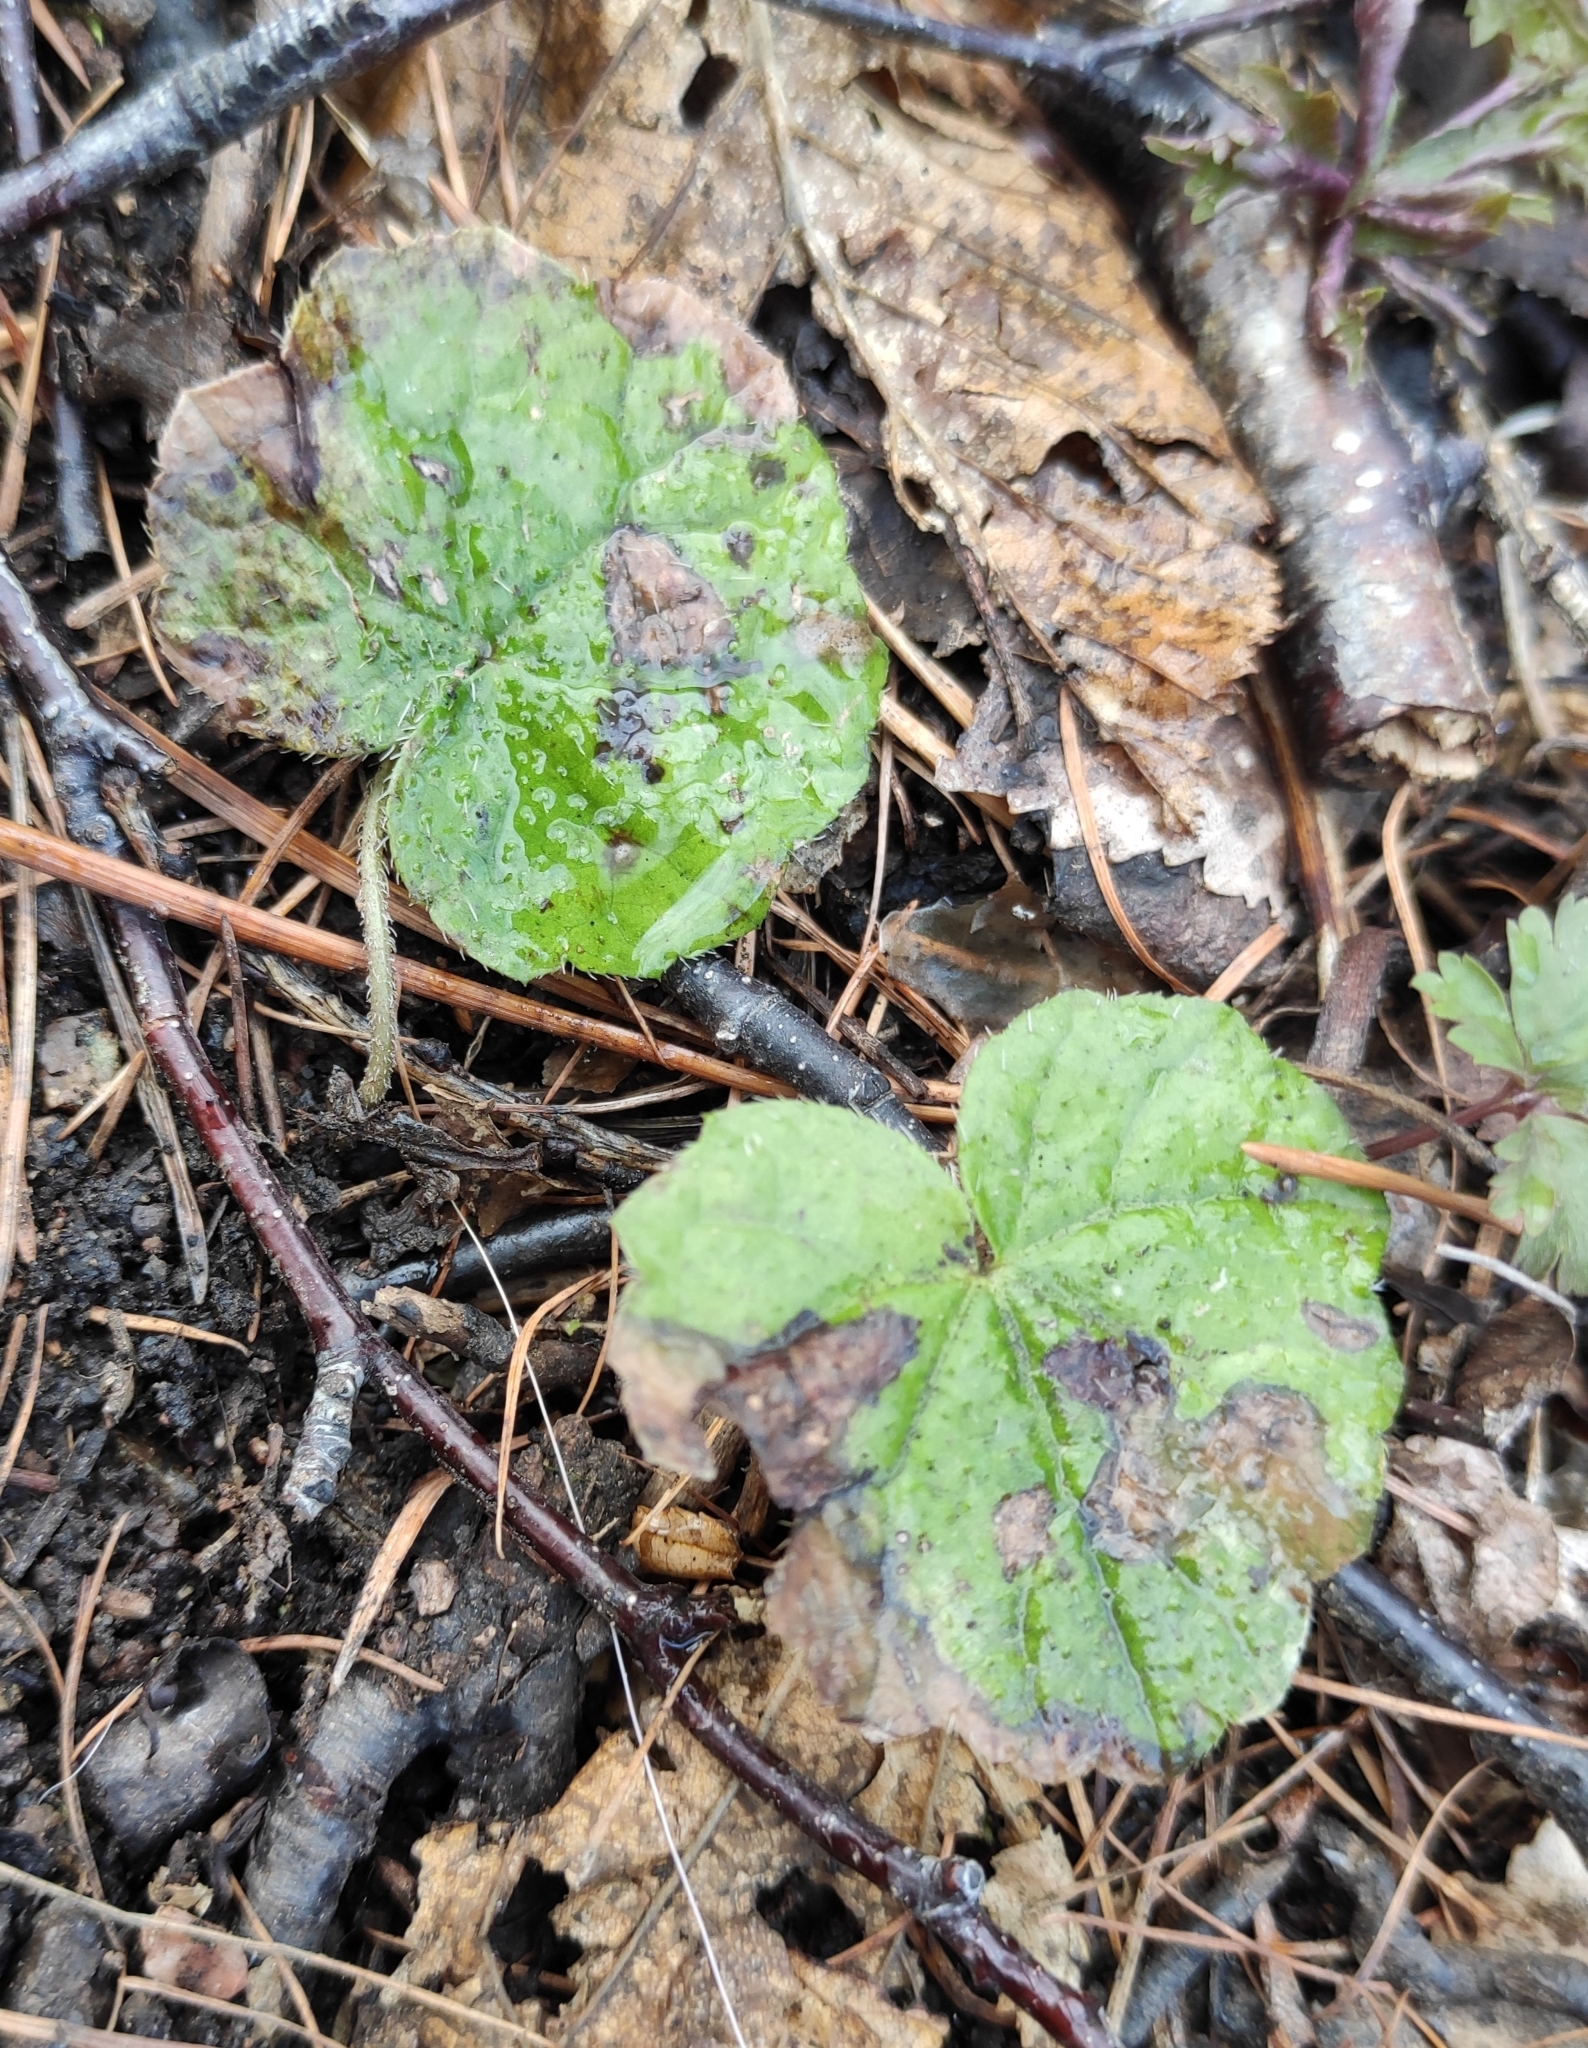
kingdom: Plantae
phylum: Tracheophyta
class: Magnoliopsida
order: Saxifragales
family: Saxifragaceae
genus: Mitella
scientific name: Mitella nuda
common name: Bare-stemmed bishop's-cap
